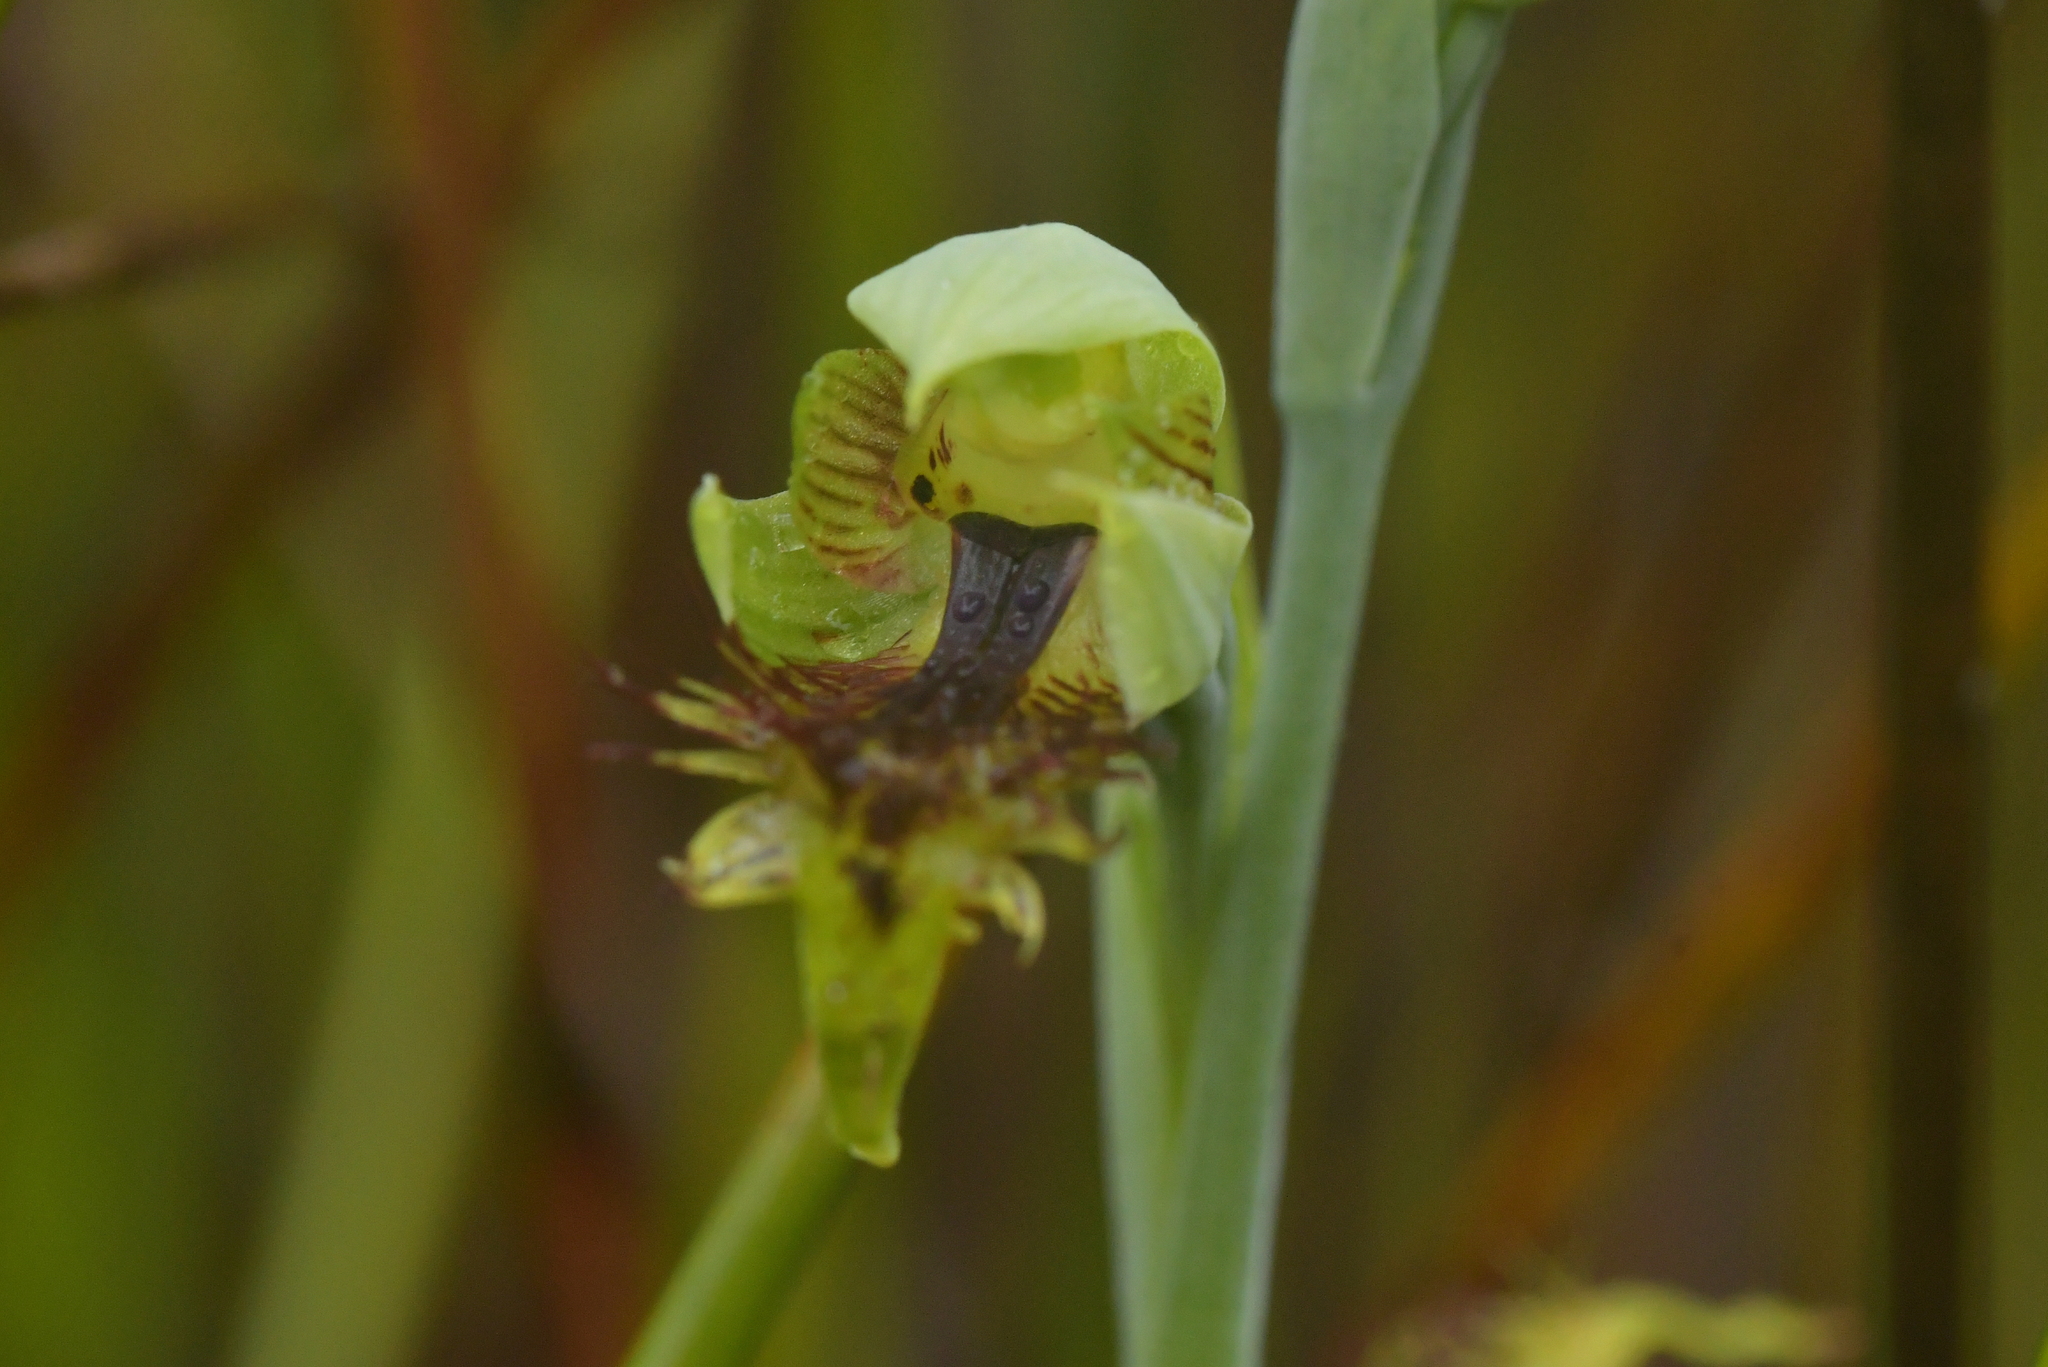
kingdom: Plantae
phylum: Tracheophyta
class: Liliopsida
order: Asparagales
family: Orchidaceae
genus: Calochilus
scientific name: Calochilus herbaceus
